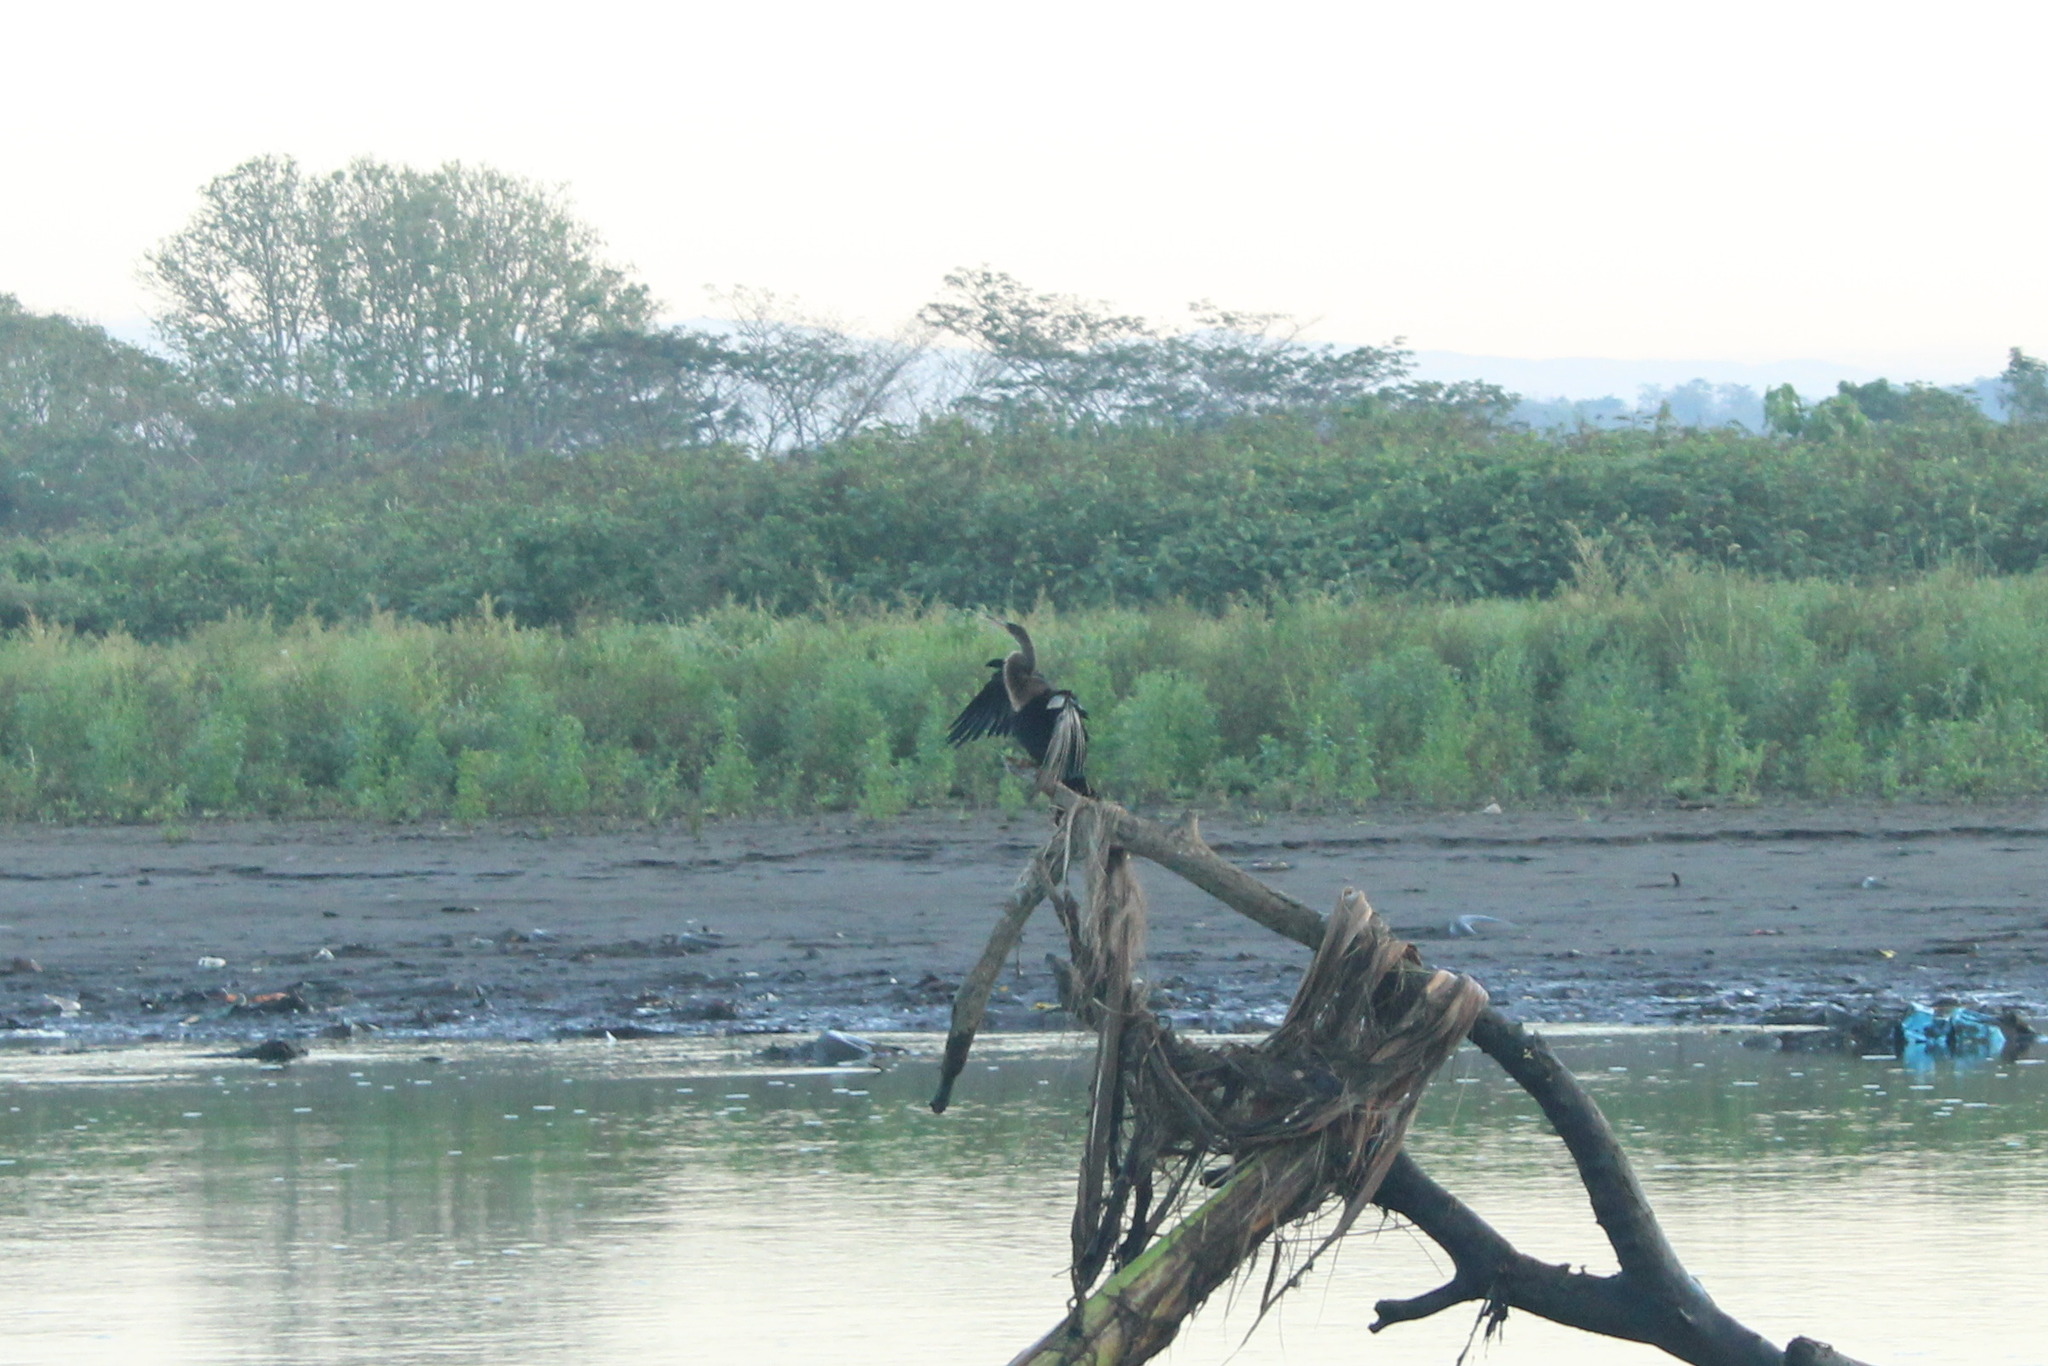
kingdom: Animalia
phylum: Chordata
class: Aves
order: Suliformes
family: Anhingidae
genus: Anhinga
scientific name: Anhinga anhinga
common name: Anhinga
